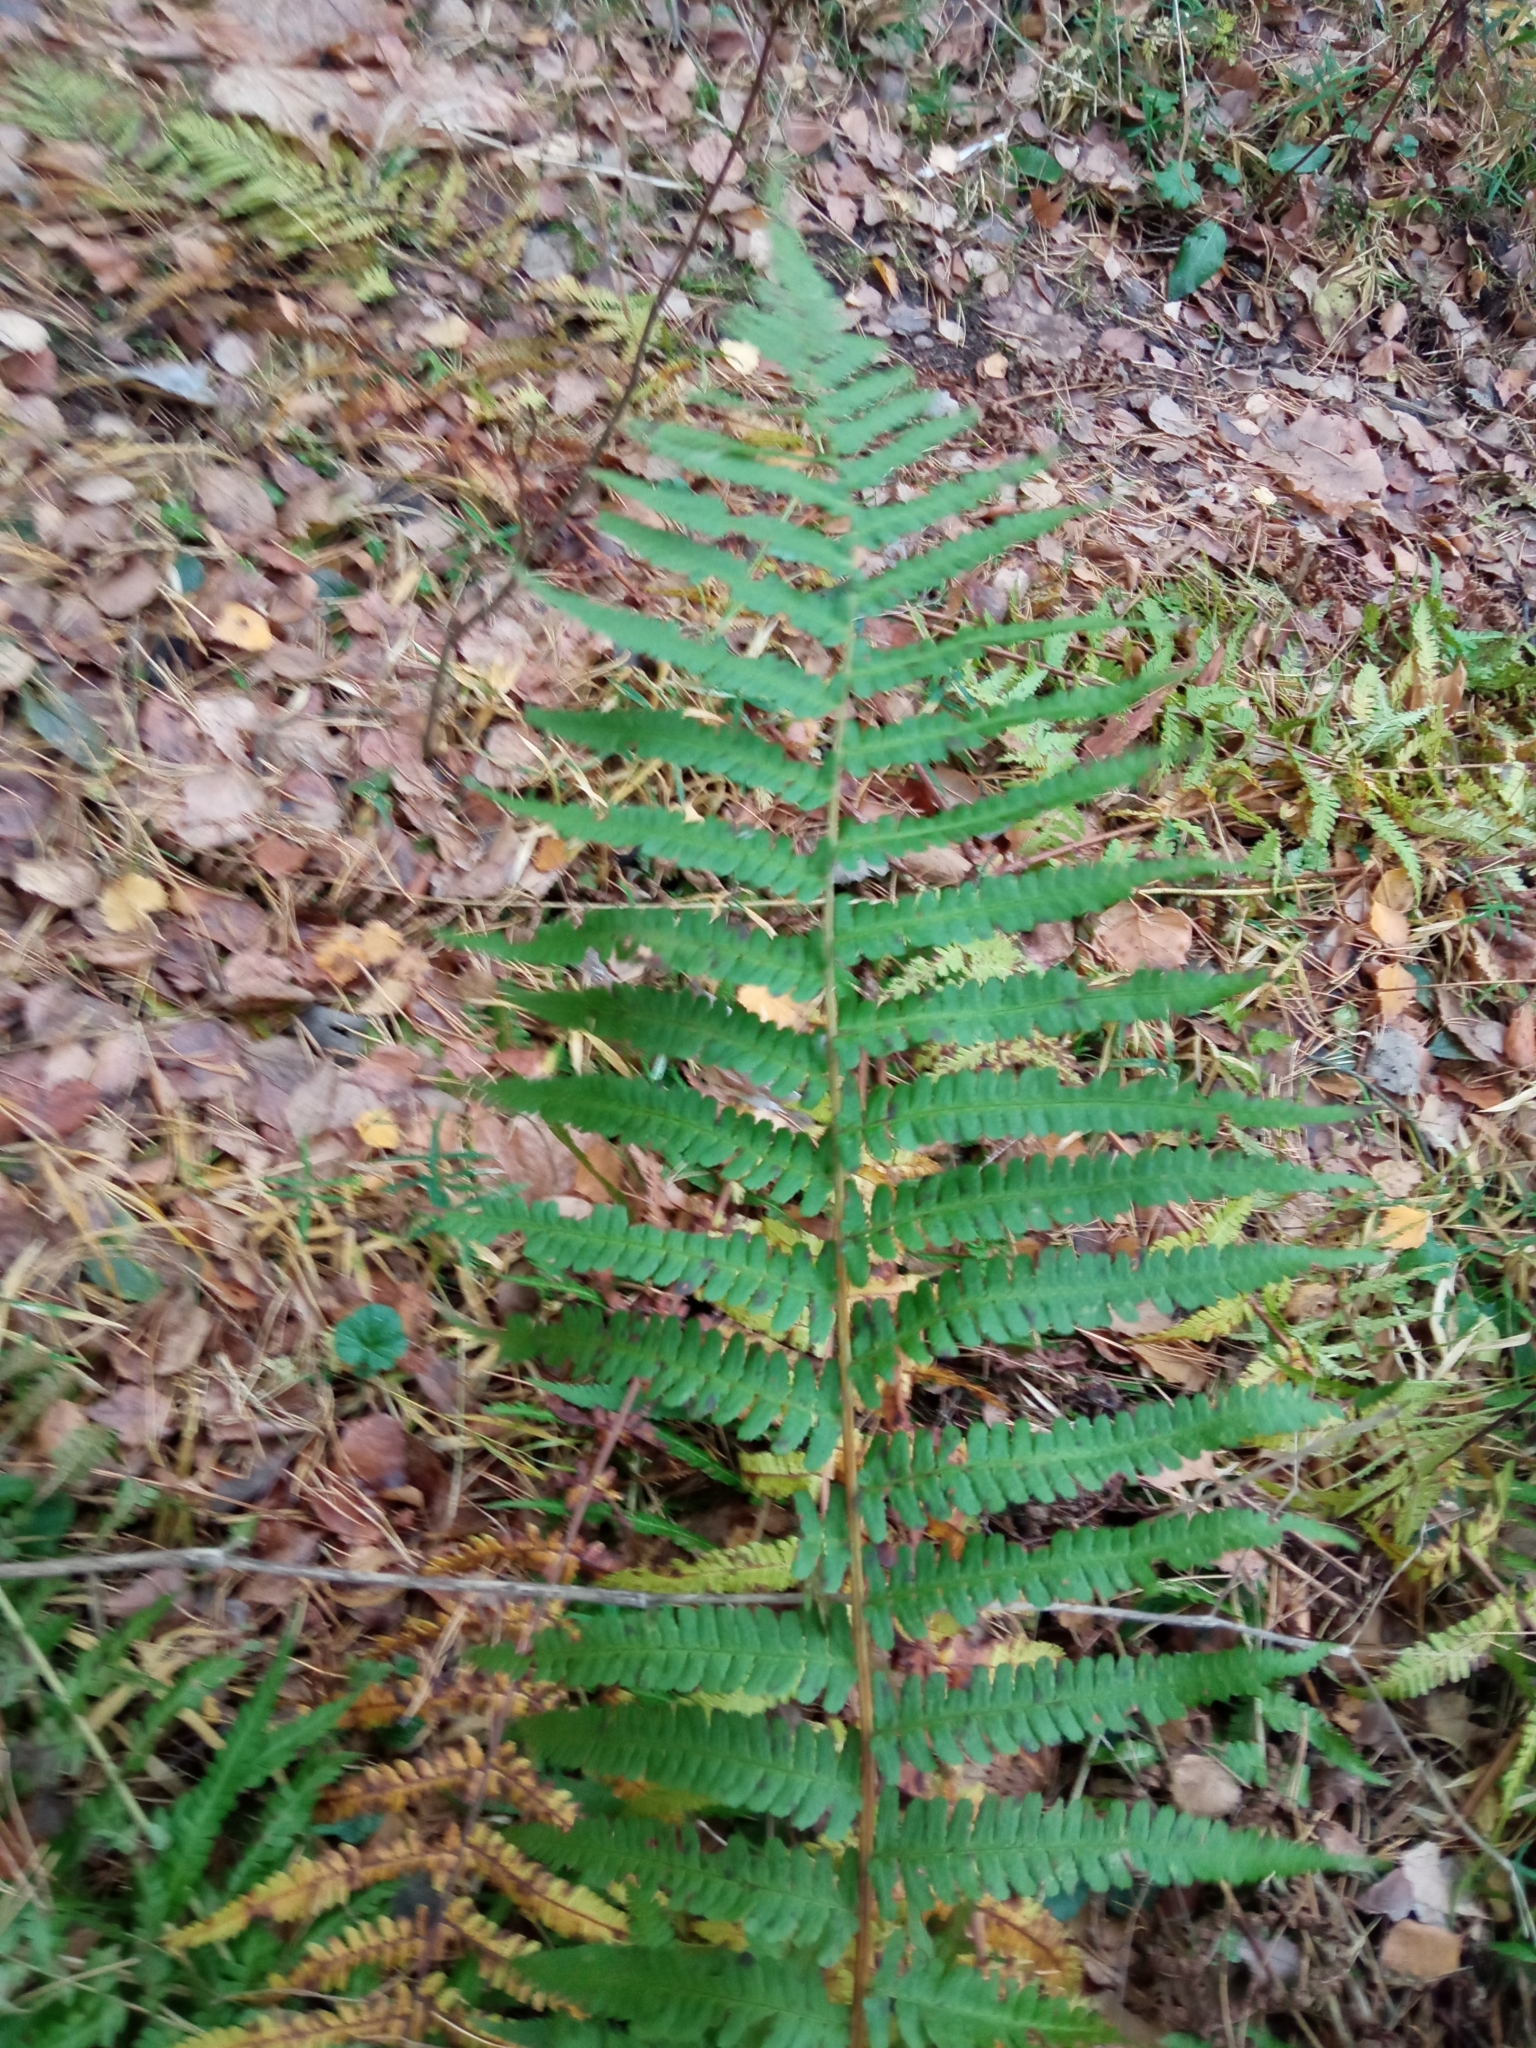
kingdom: Plantae
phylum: Tracheophyta
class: Polypodiopsida
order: Polypodiales
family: Dryopteridaceae
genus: Dryopteris
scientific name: Dryopteris filix-mas
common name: Male fern
